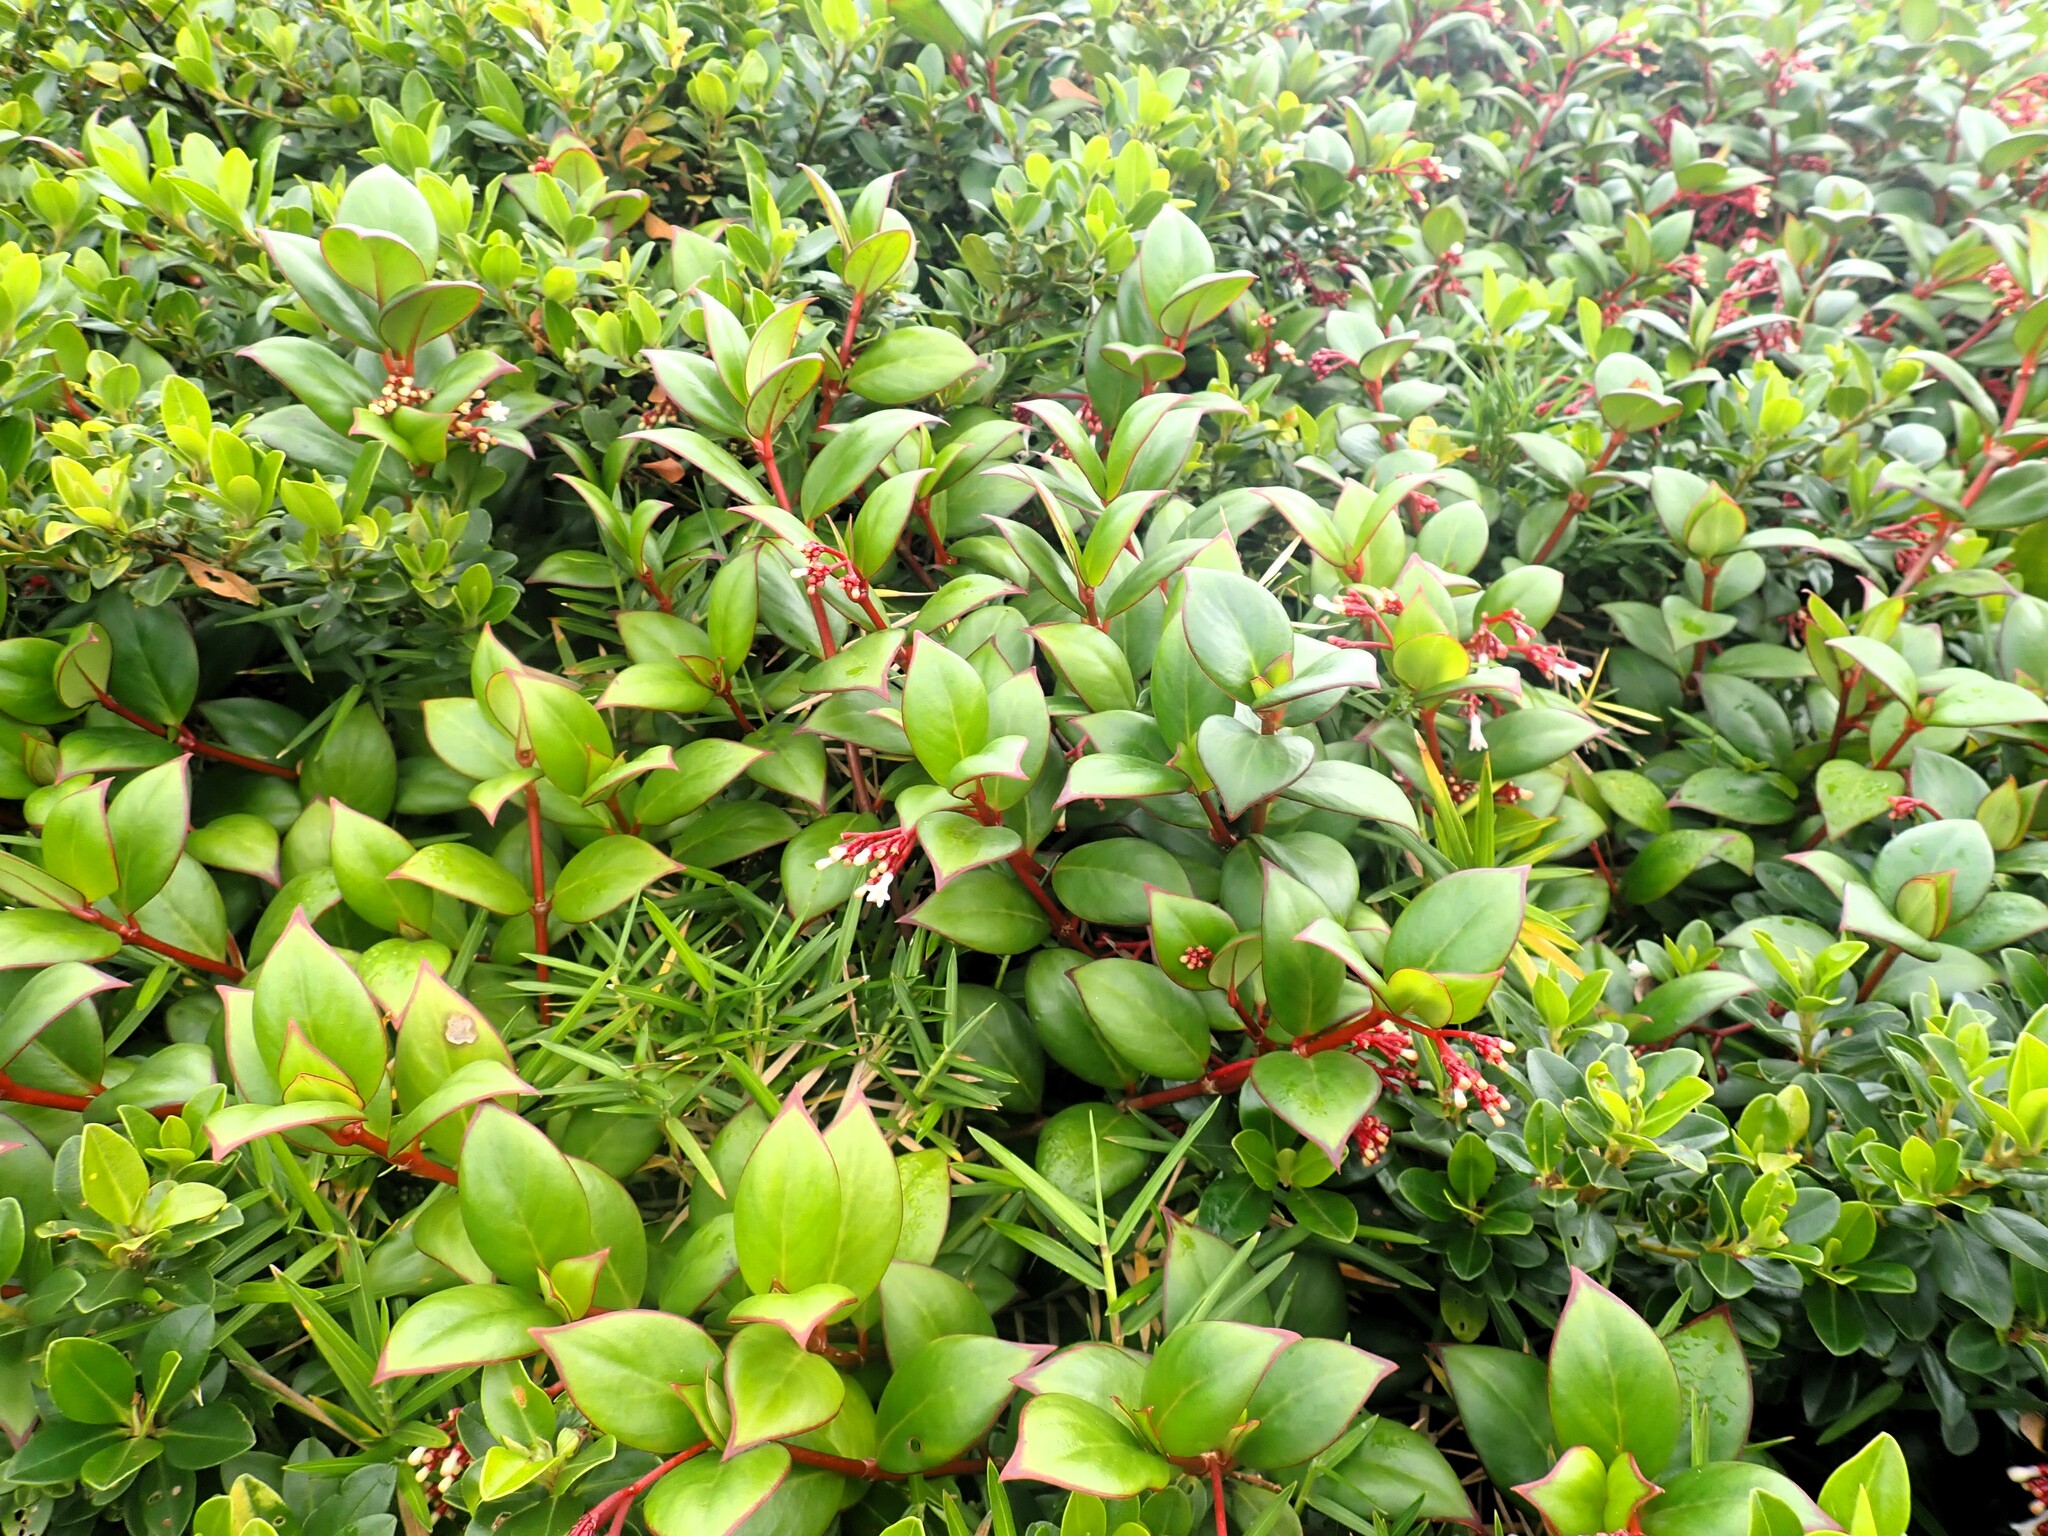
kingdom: Plantae
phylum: Tracheophyta
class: Magnoliopsida
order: Gentianales
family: Rubiaceae
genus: Notopleura
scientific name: Notopleura parasitica
